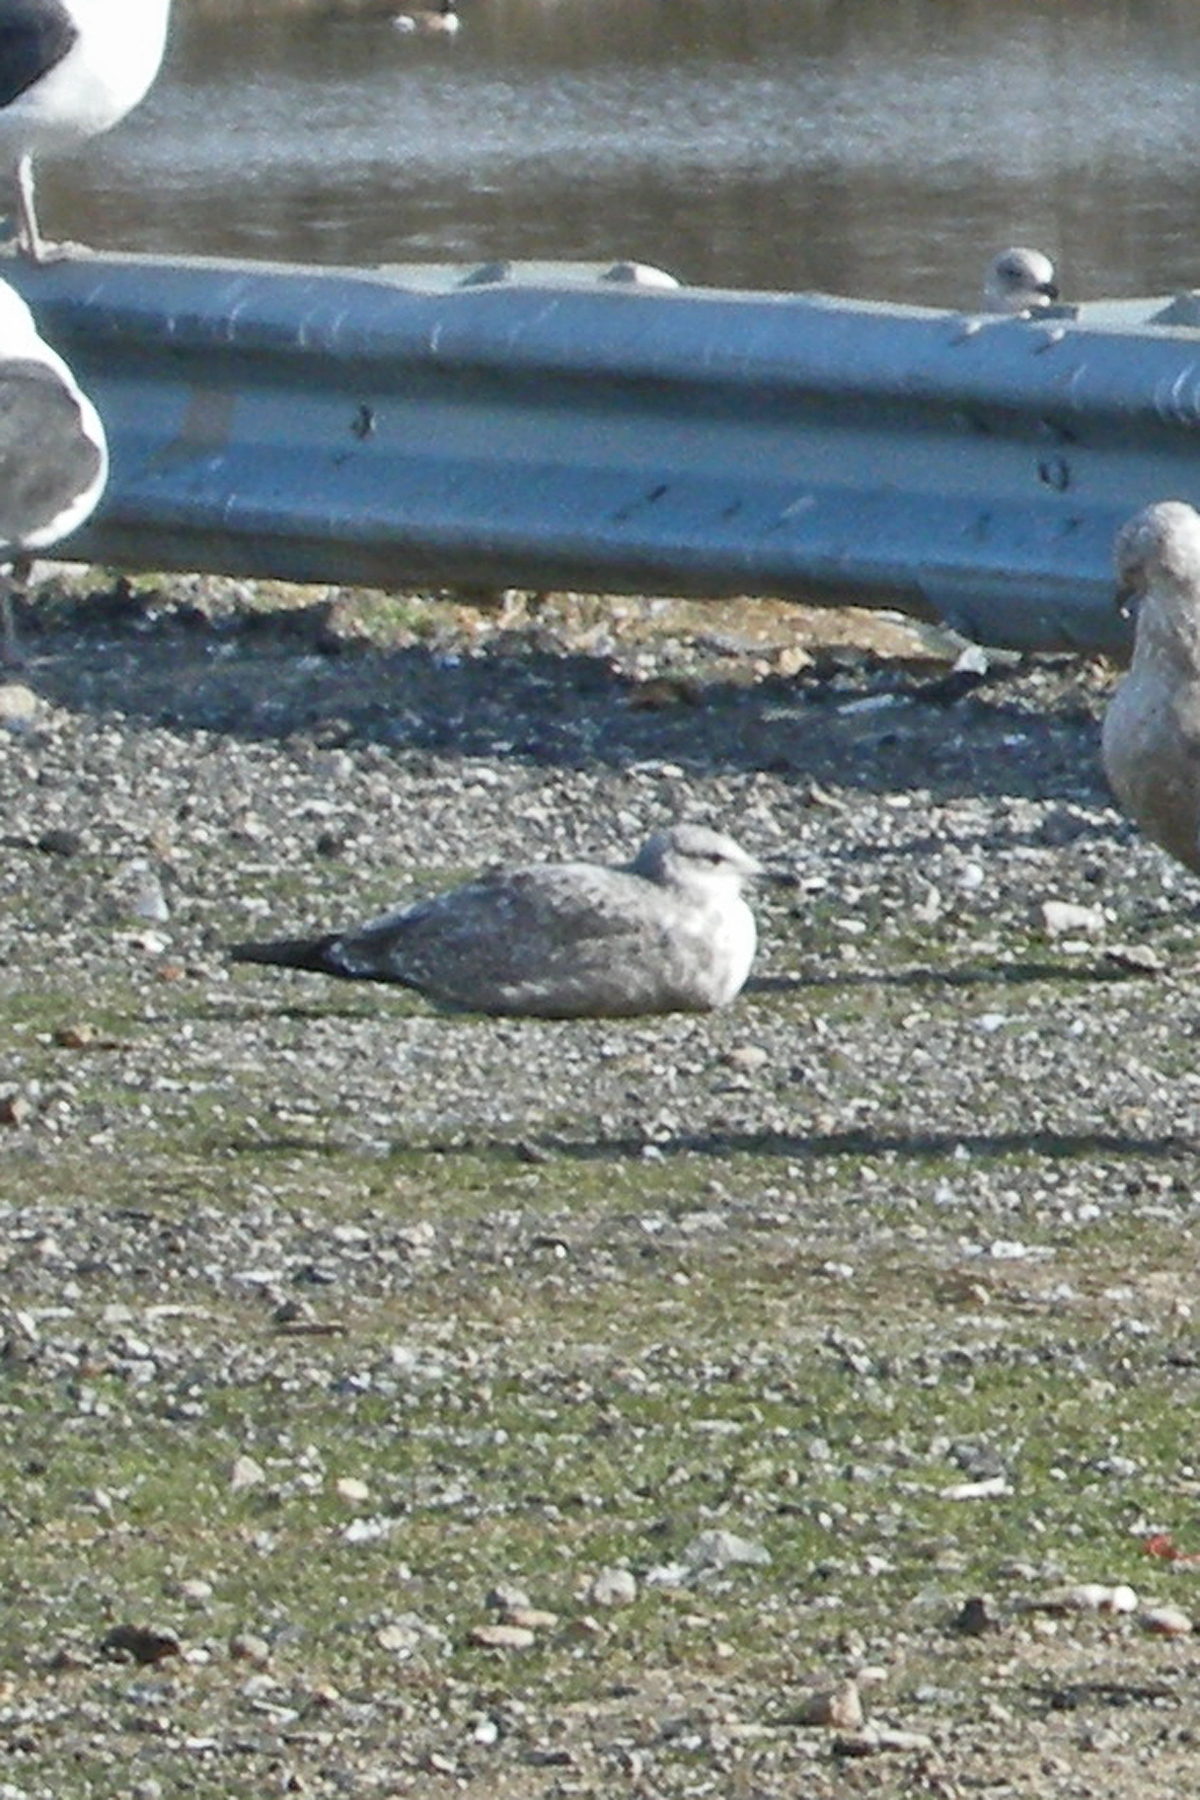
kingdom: Animalia
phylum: Chordata
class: Aves
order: Charadriiformes
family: Laridae
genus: Larus
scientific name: Larus fuscus
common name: Lesser black-backed gull
